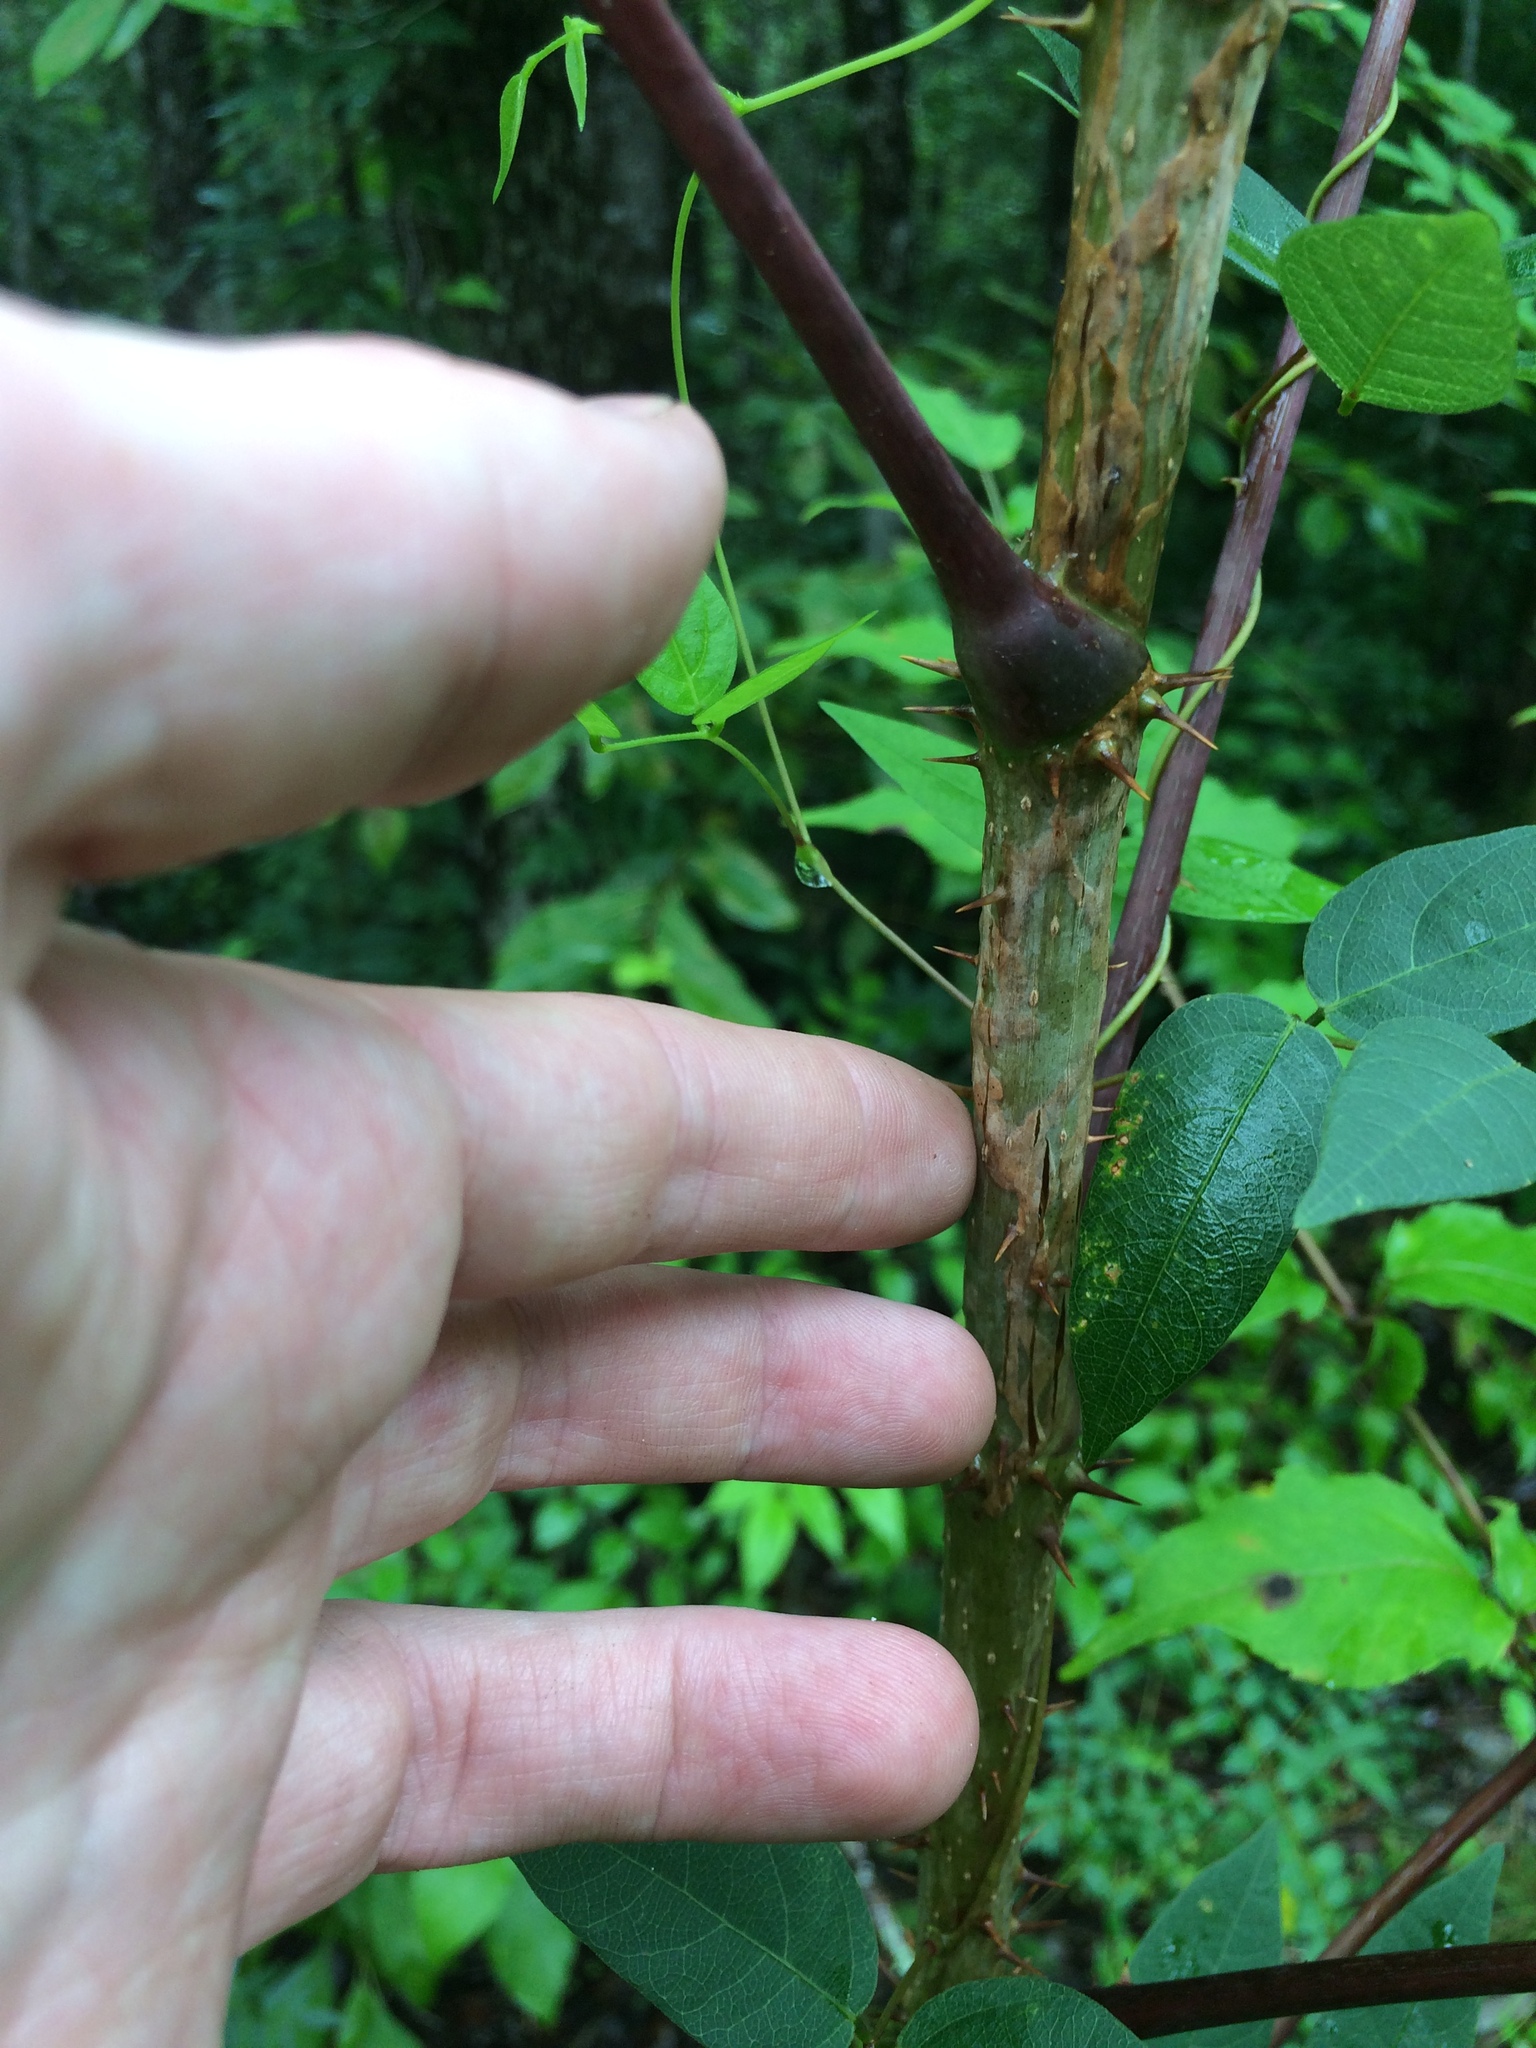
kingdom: Plantae
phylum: Tracheophyta
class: Magnoliopsida
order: Apiales
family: Araliaceae
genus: Aralia
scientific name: Aralia spinosa
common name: Hercules'-club
